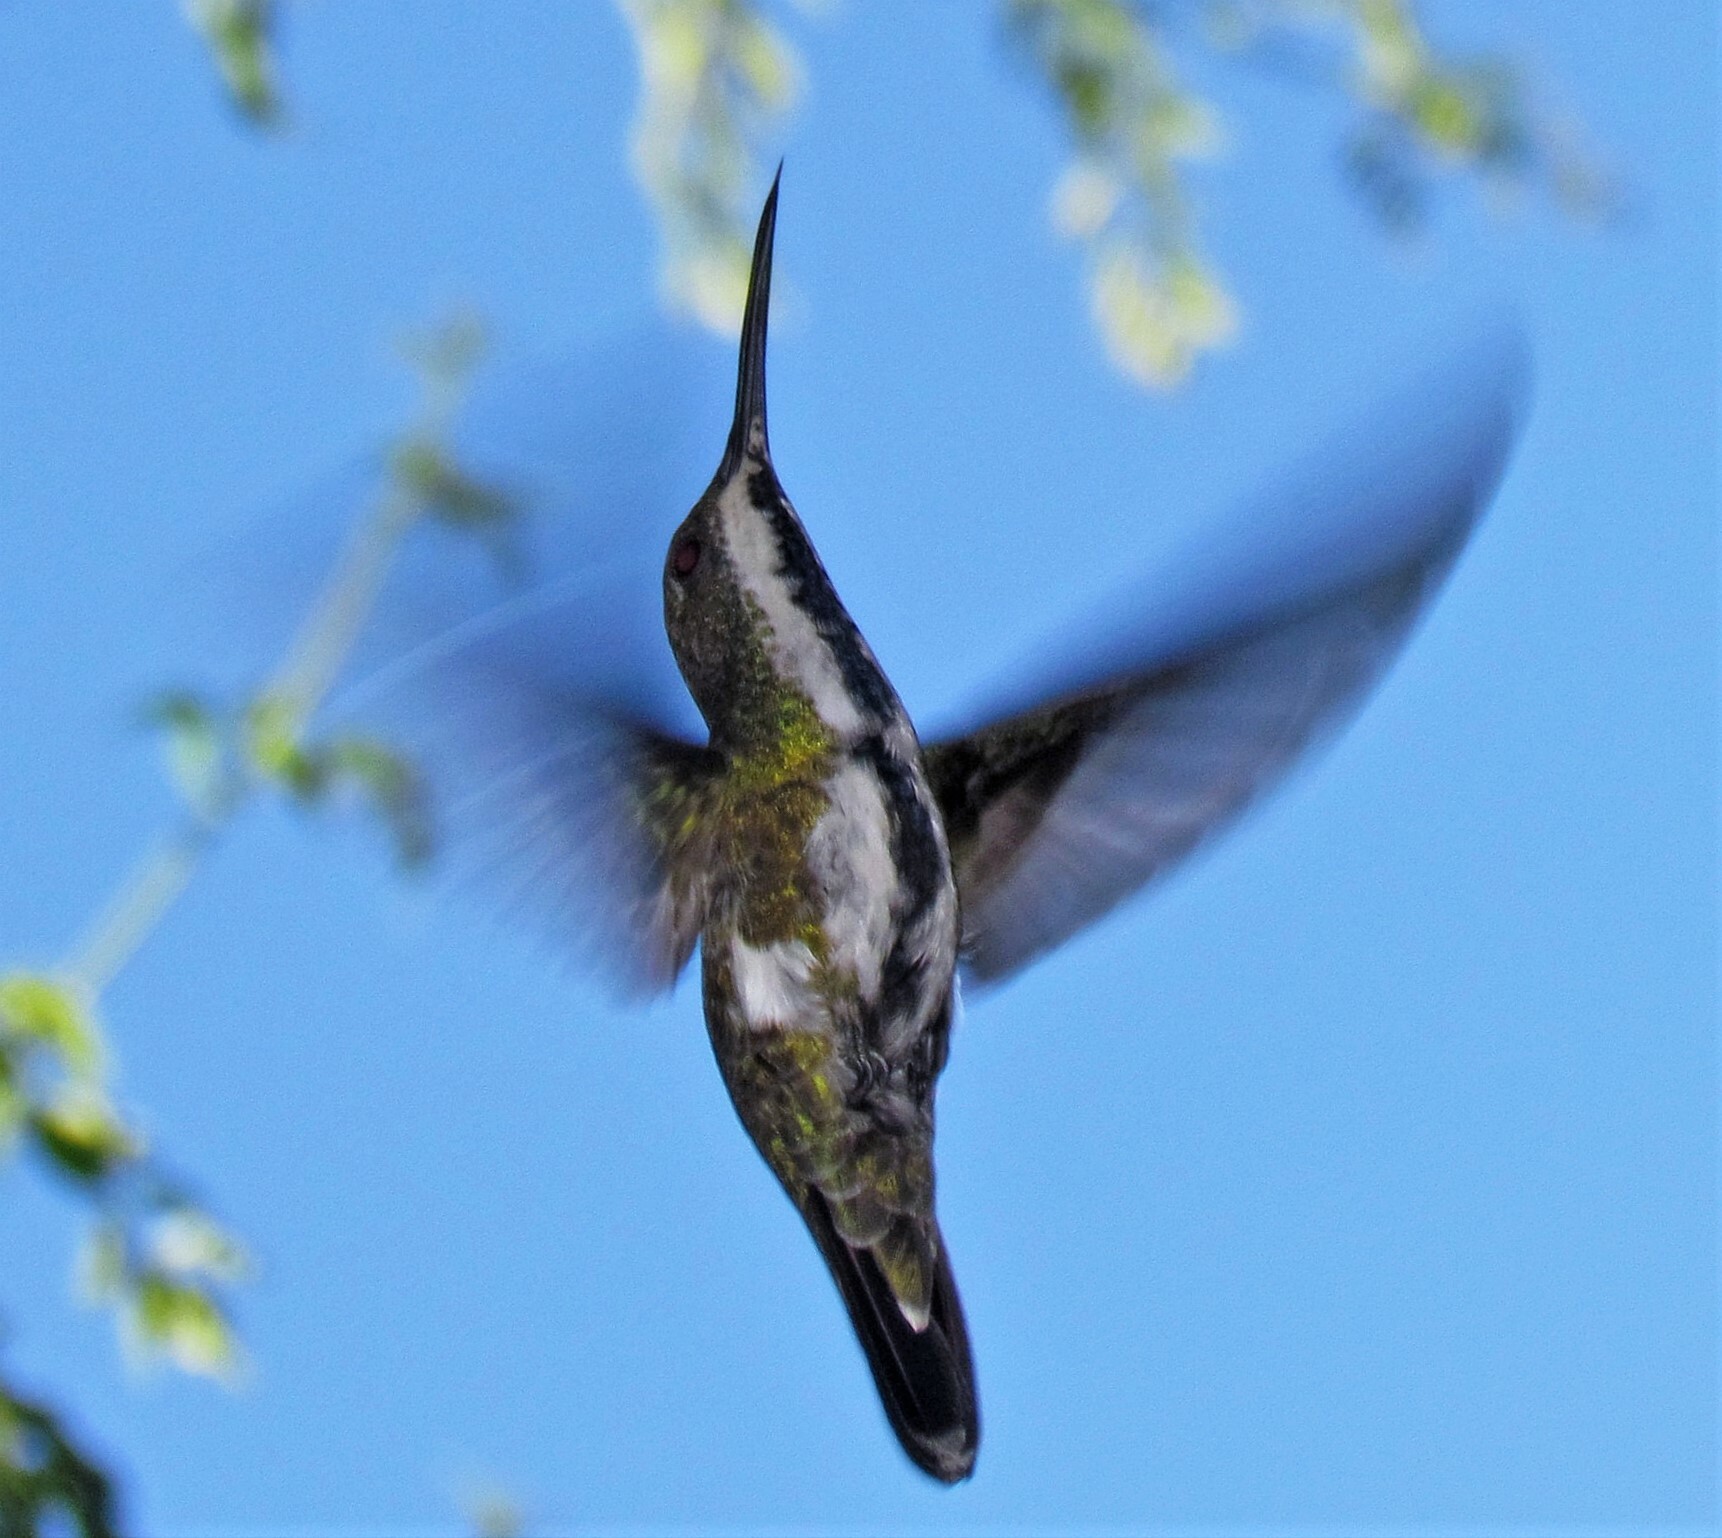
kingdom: Animalia
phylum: Chordata
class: Aves
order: Apodiformes
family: Trochilidae
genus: Anthracothorax
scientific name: Anthracothorax nigricollis
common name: Black-throated mango
